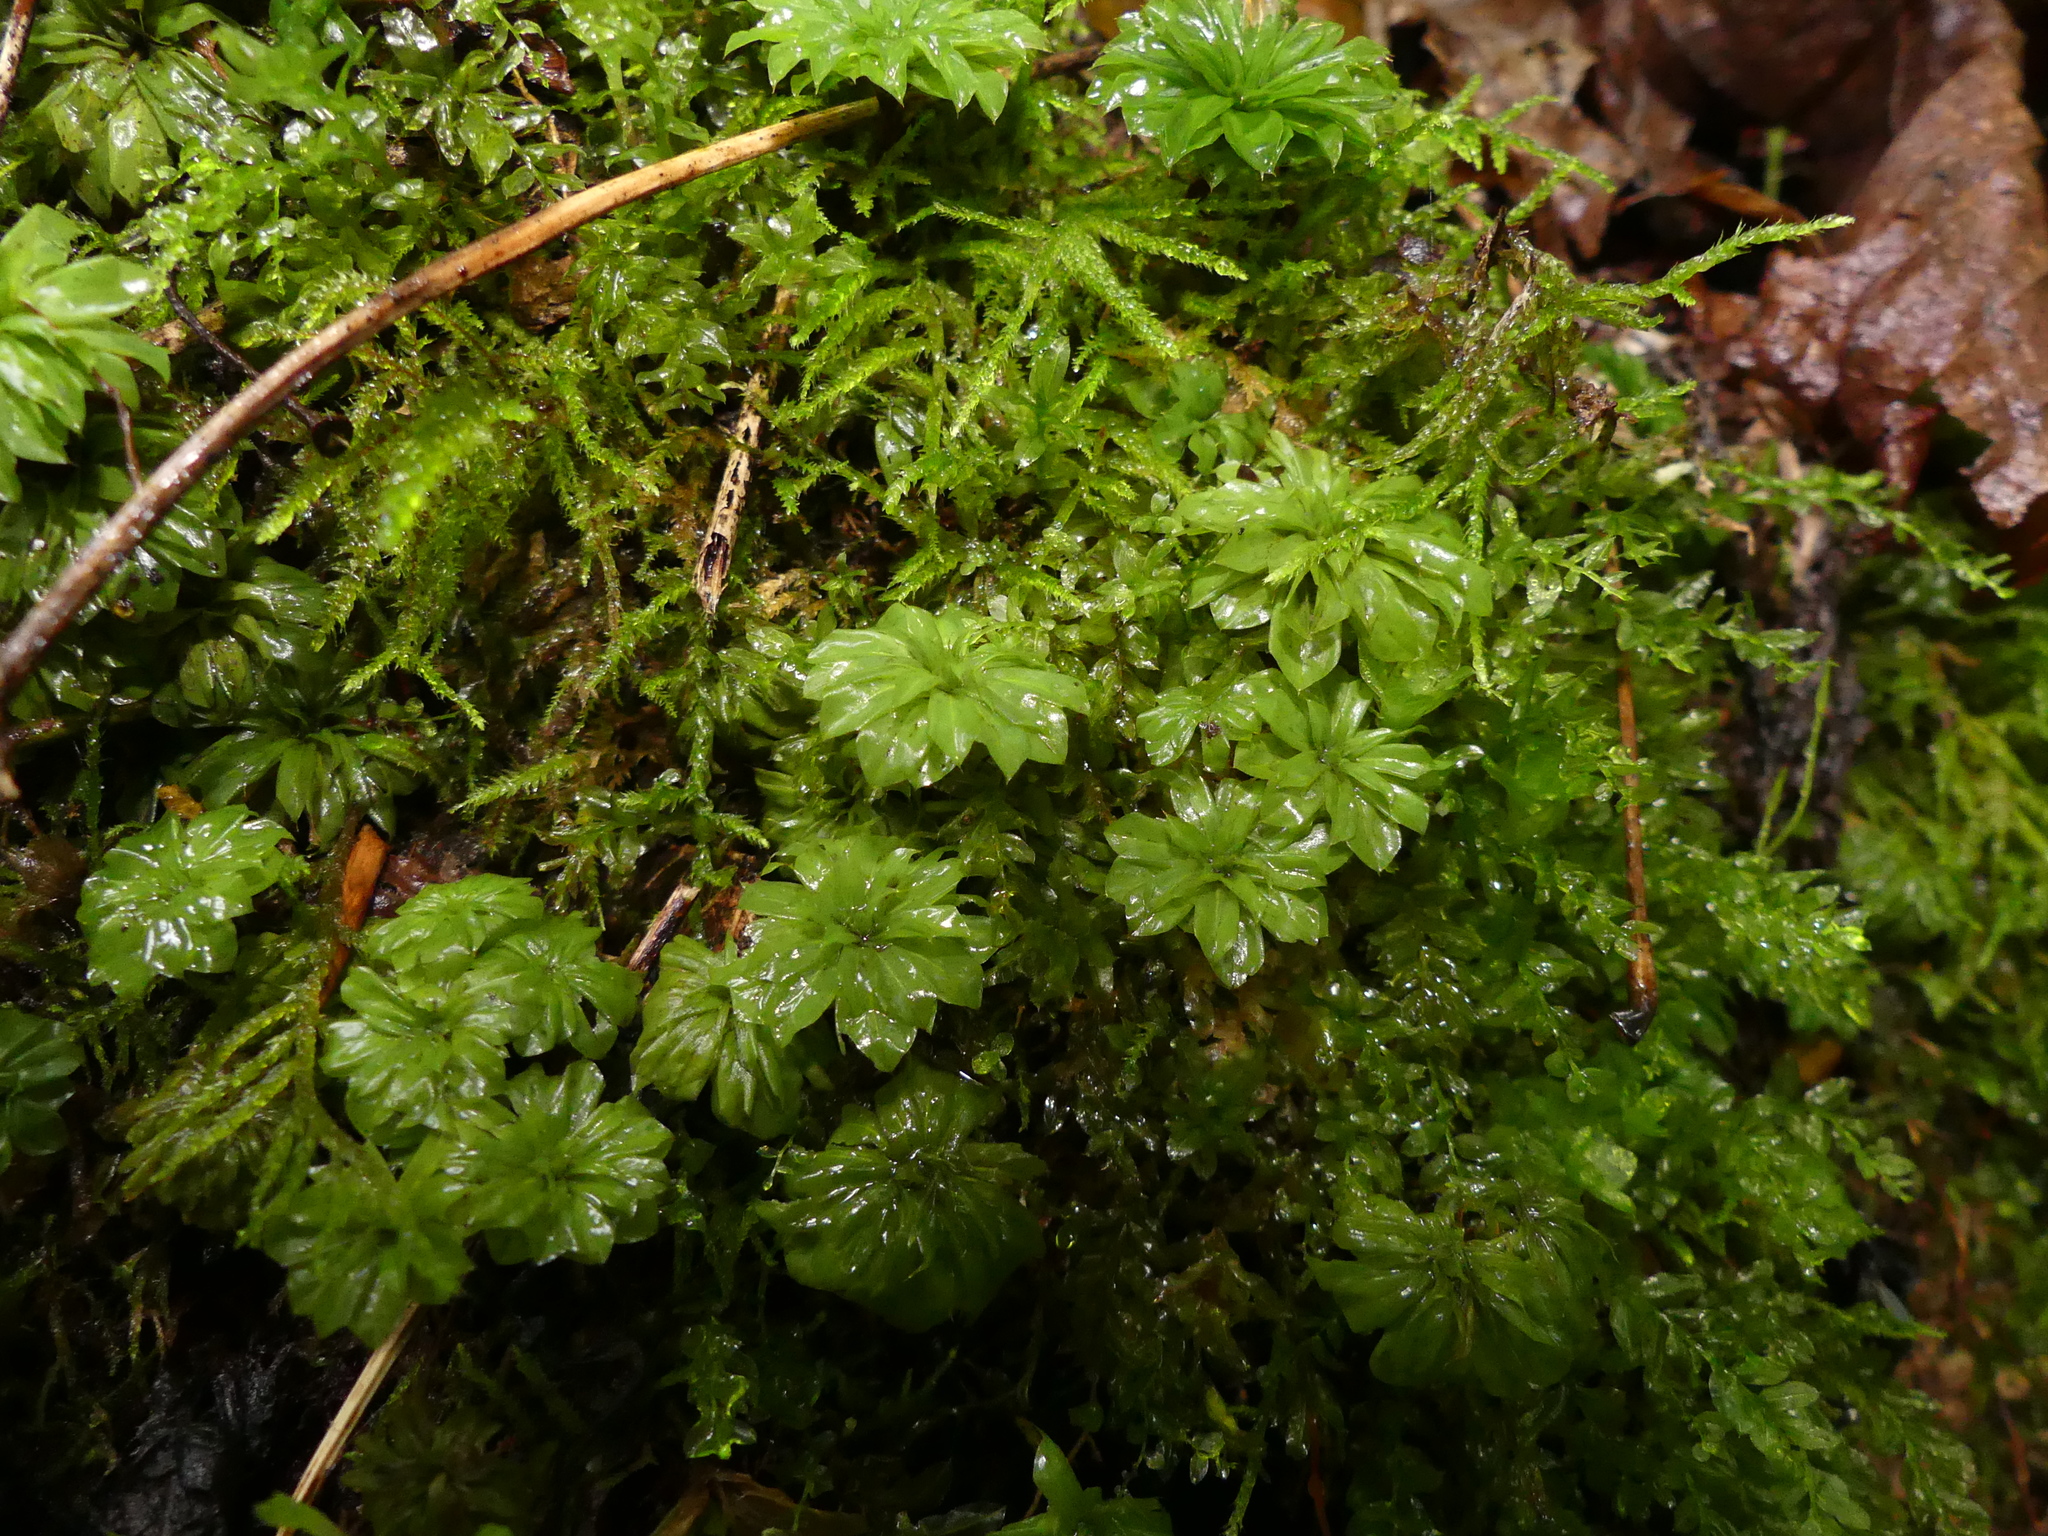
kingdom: Plantae
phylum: Bryophyta
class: Bryopsida
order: Bryales
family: Bryaceae
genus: Rhodobryum
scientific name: Rhodobryum ontariense
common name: Ontario rhodobryum moss
